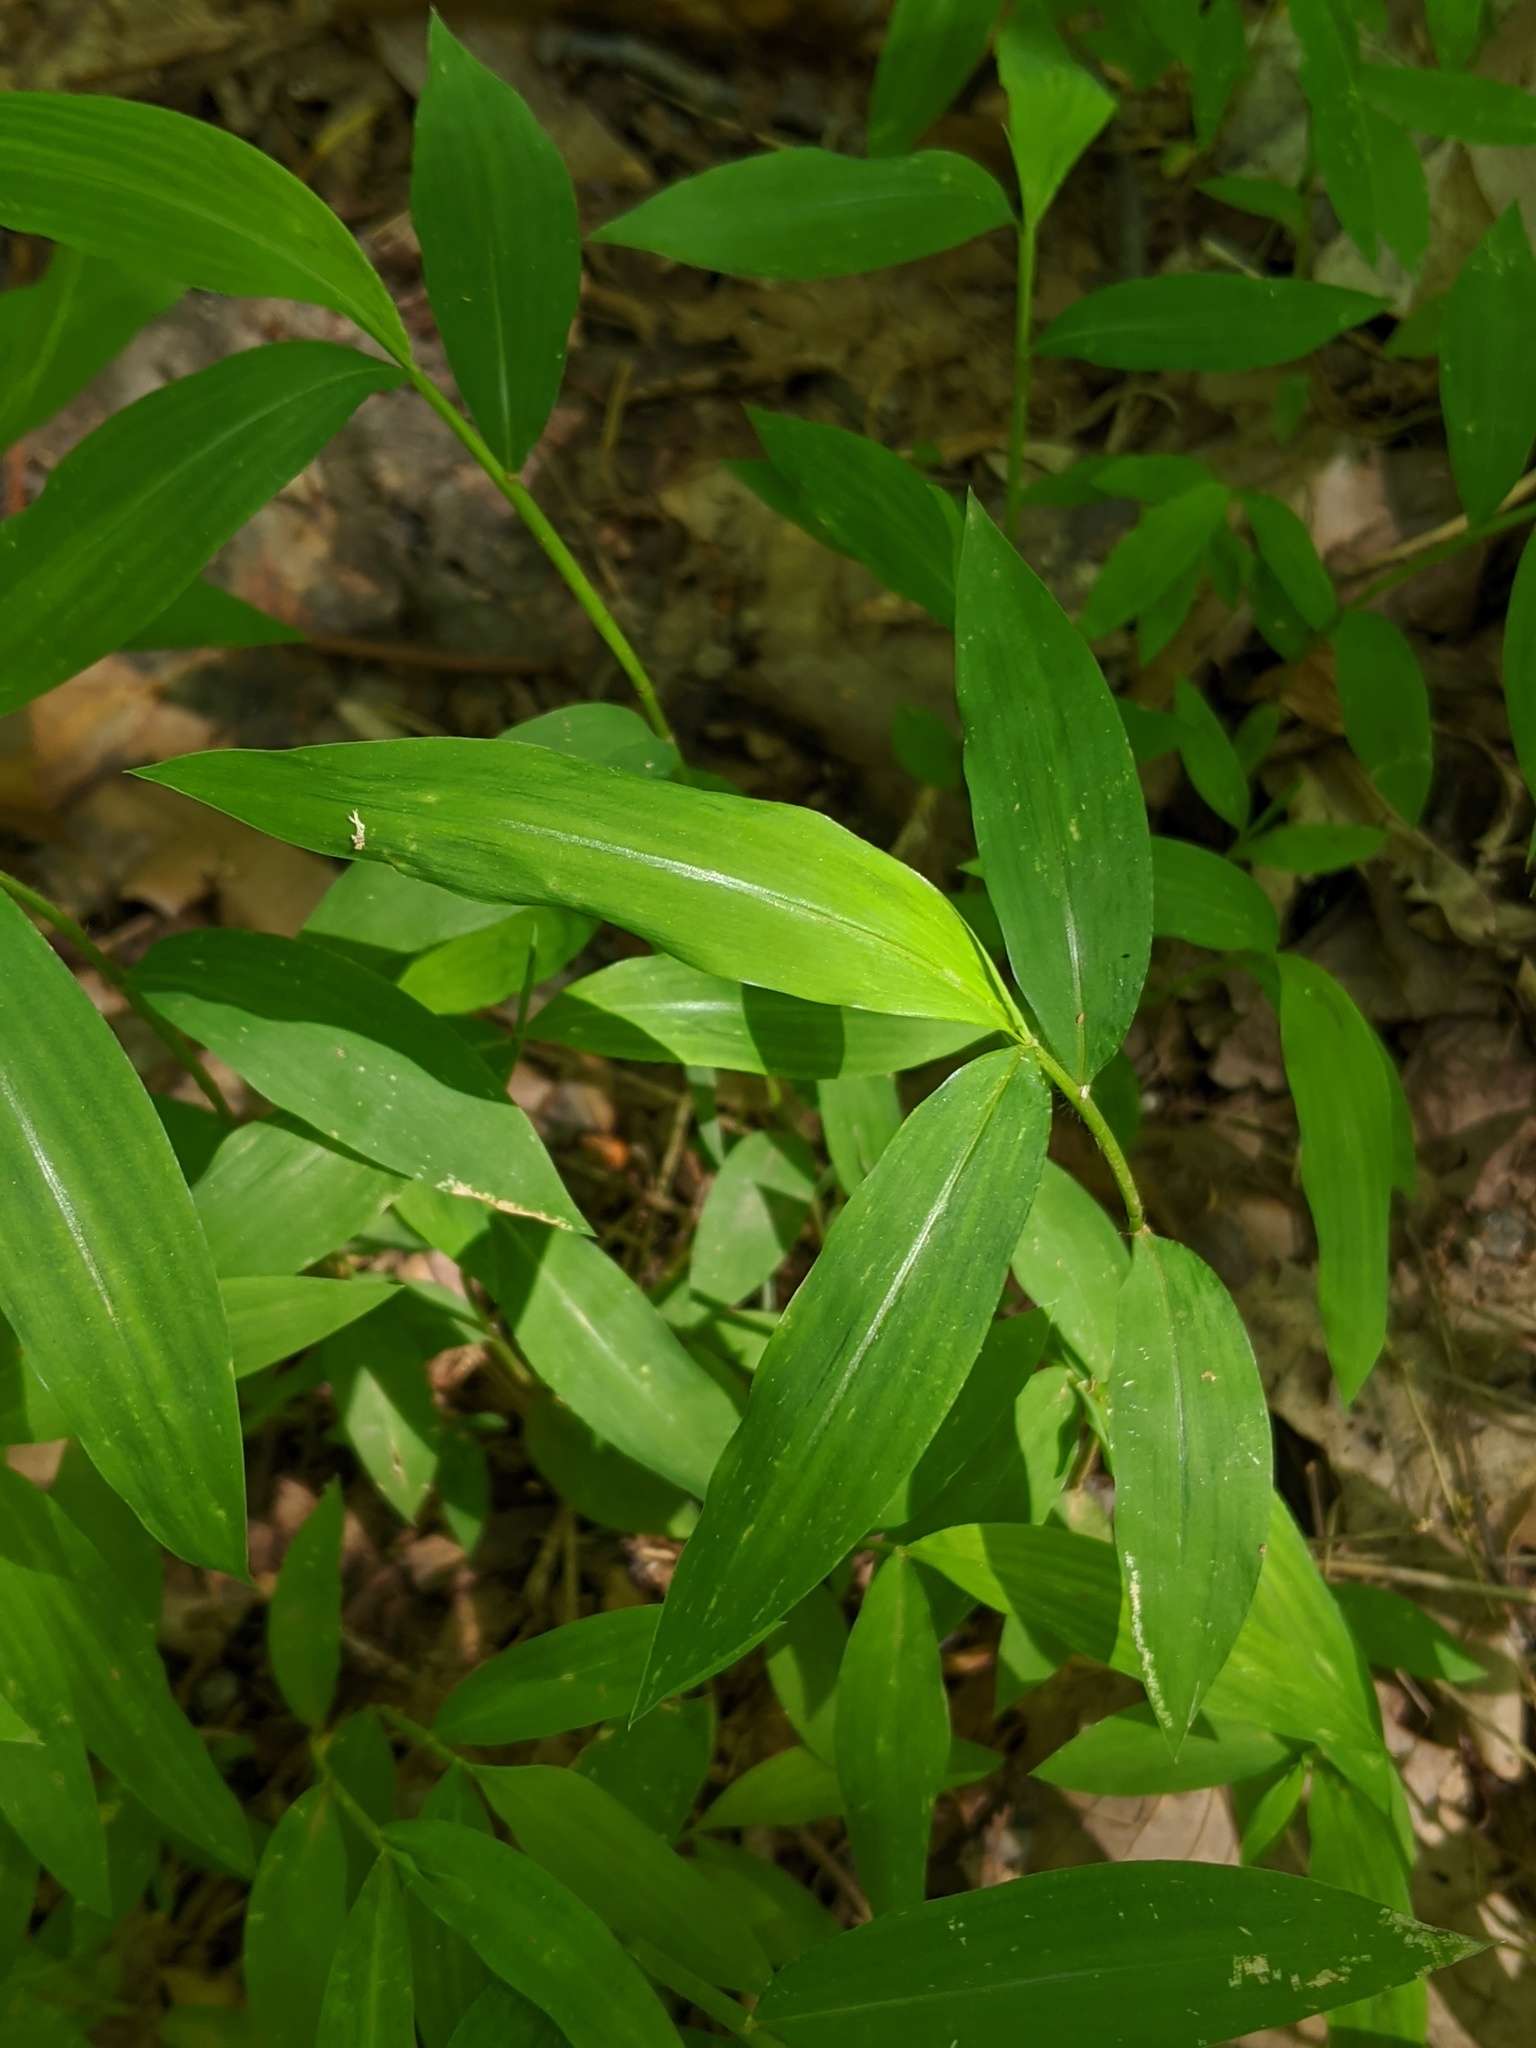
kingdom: Plantae
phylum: Tracheophyta
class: Liliopsida
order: Poales
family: Poaceae
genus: Microstegium
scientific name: Microstegium vimineum
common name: Japanese stiltgrass
